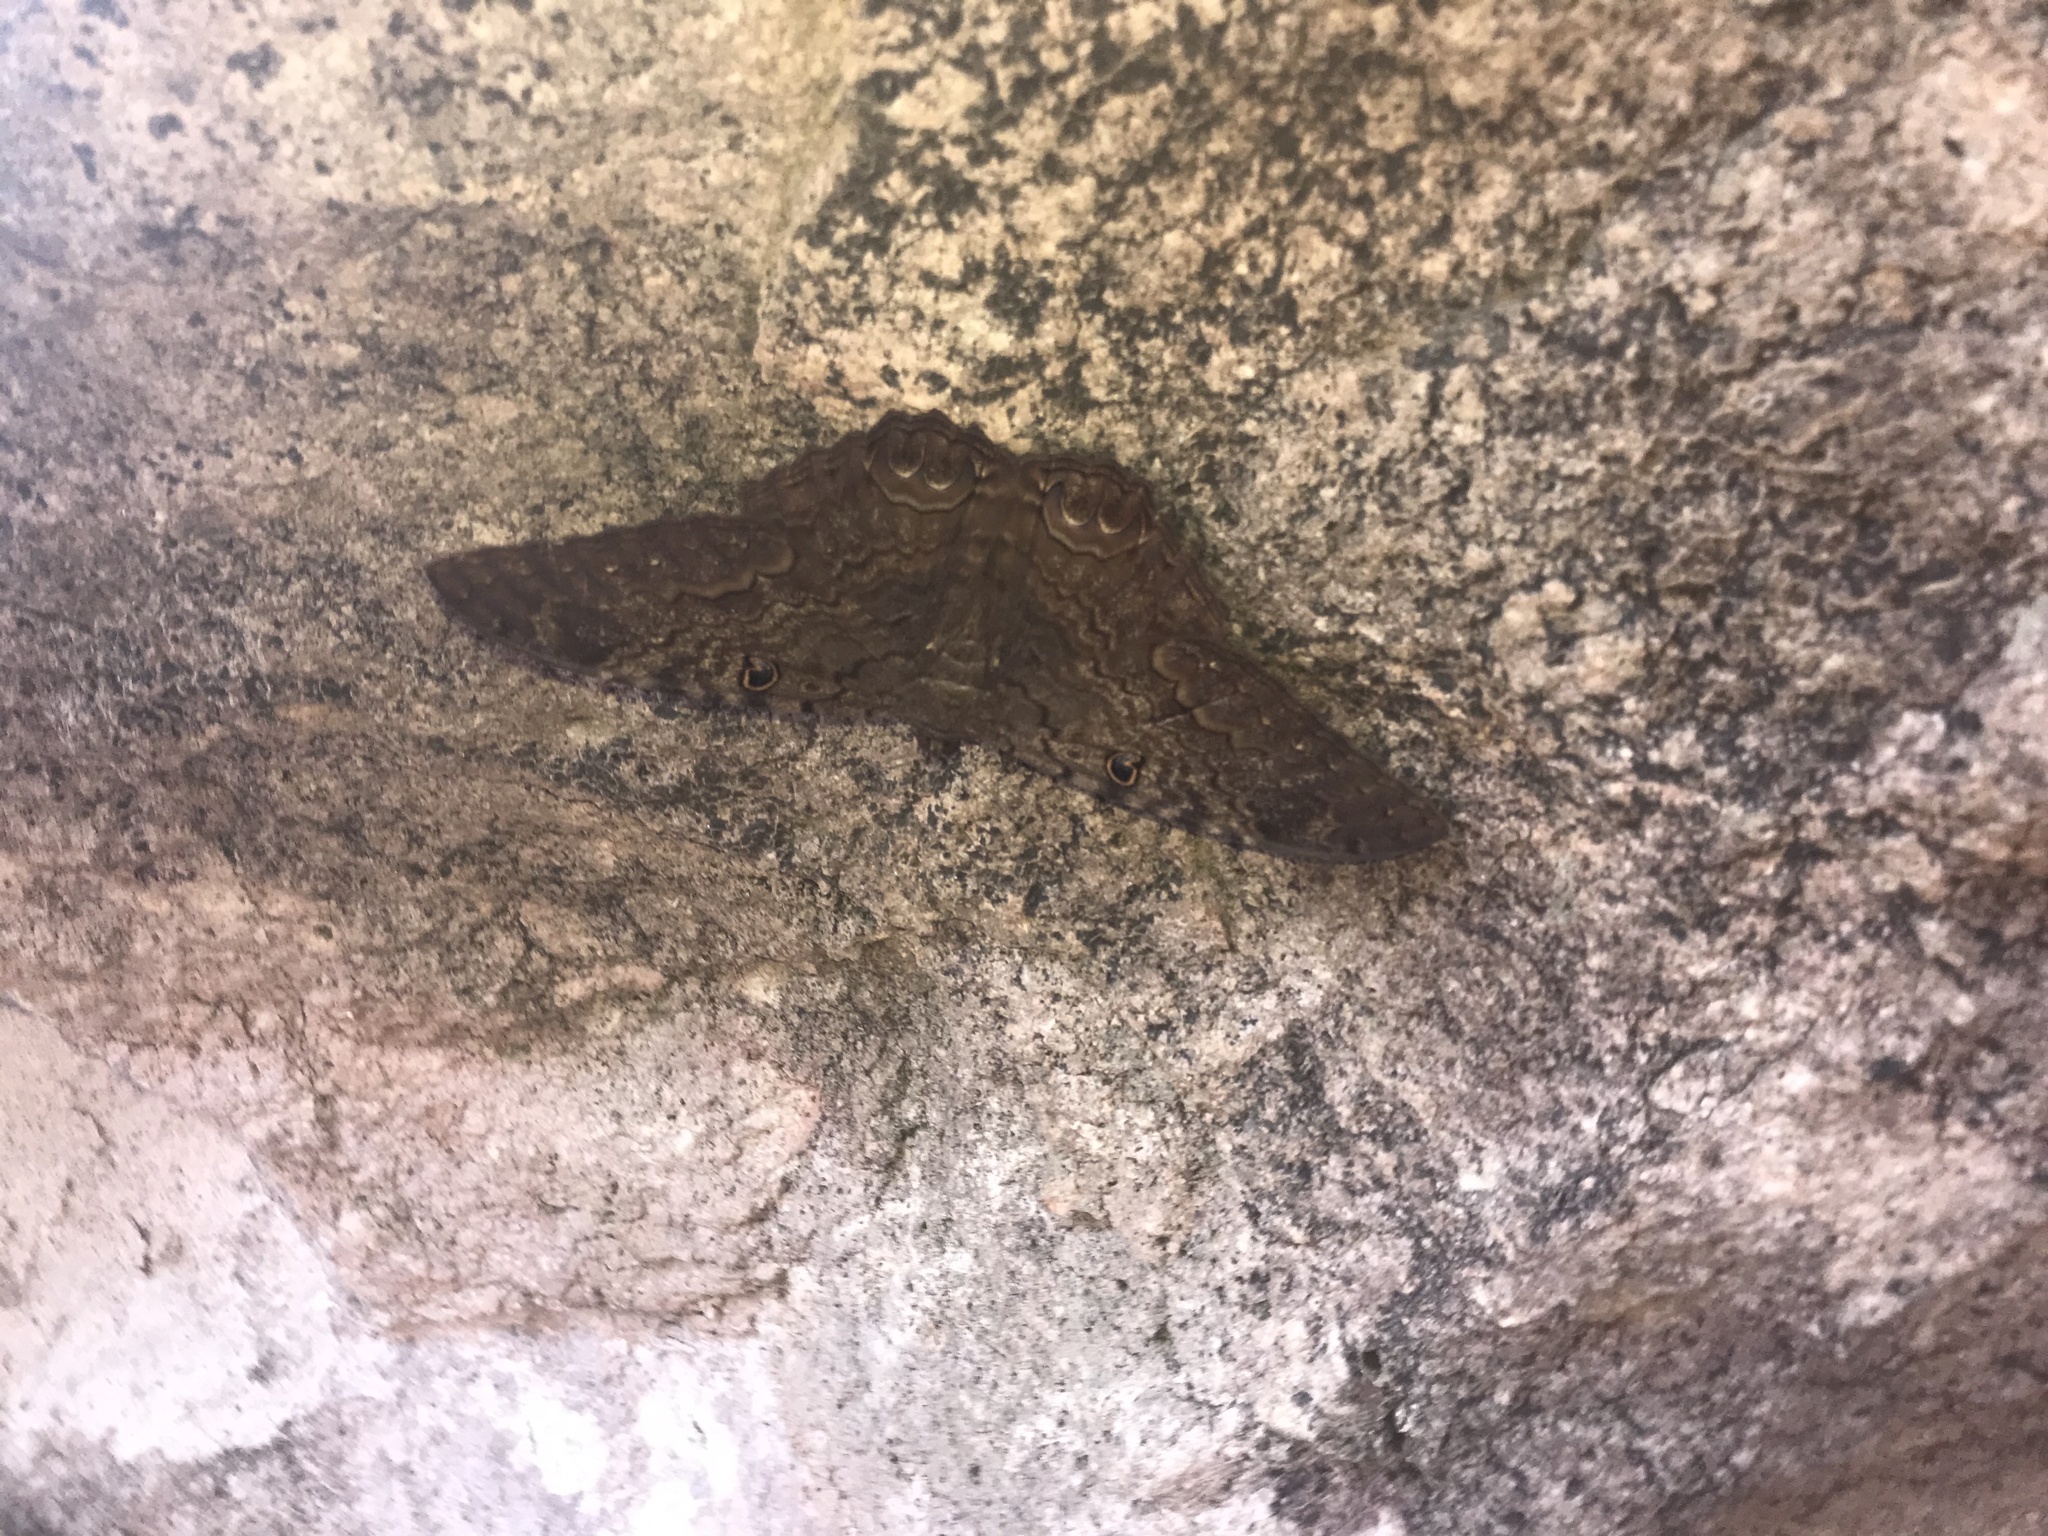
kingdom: Animalia
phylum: Arthropoda
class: Insecta
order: Lepidoptera
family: Erebidae
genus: Ascalapha
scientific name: Ascalapha odorata
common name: Black witch
